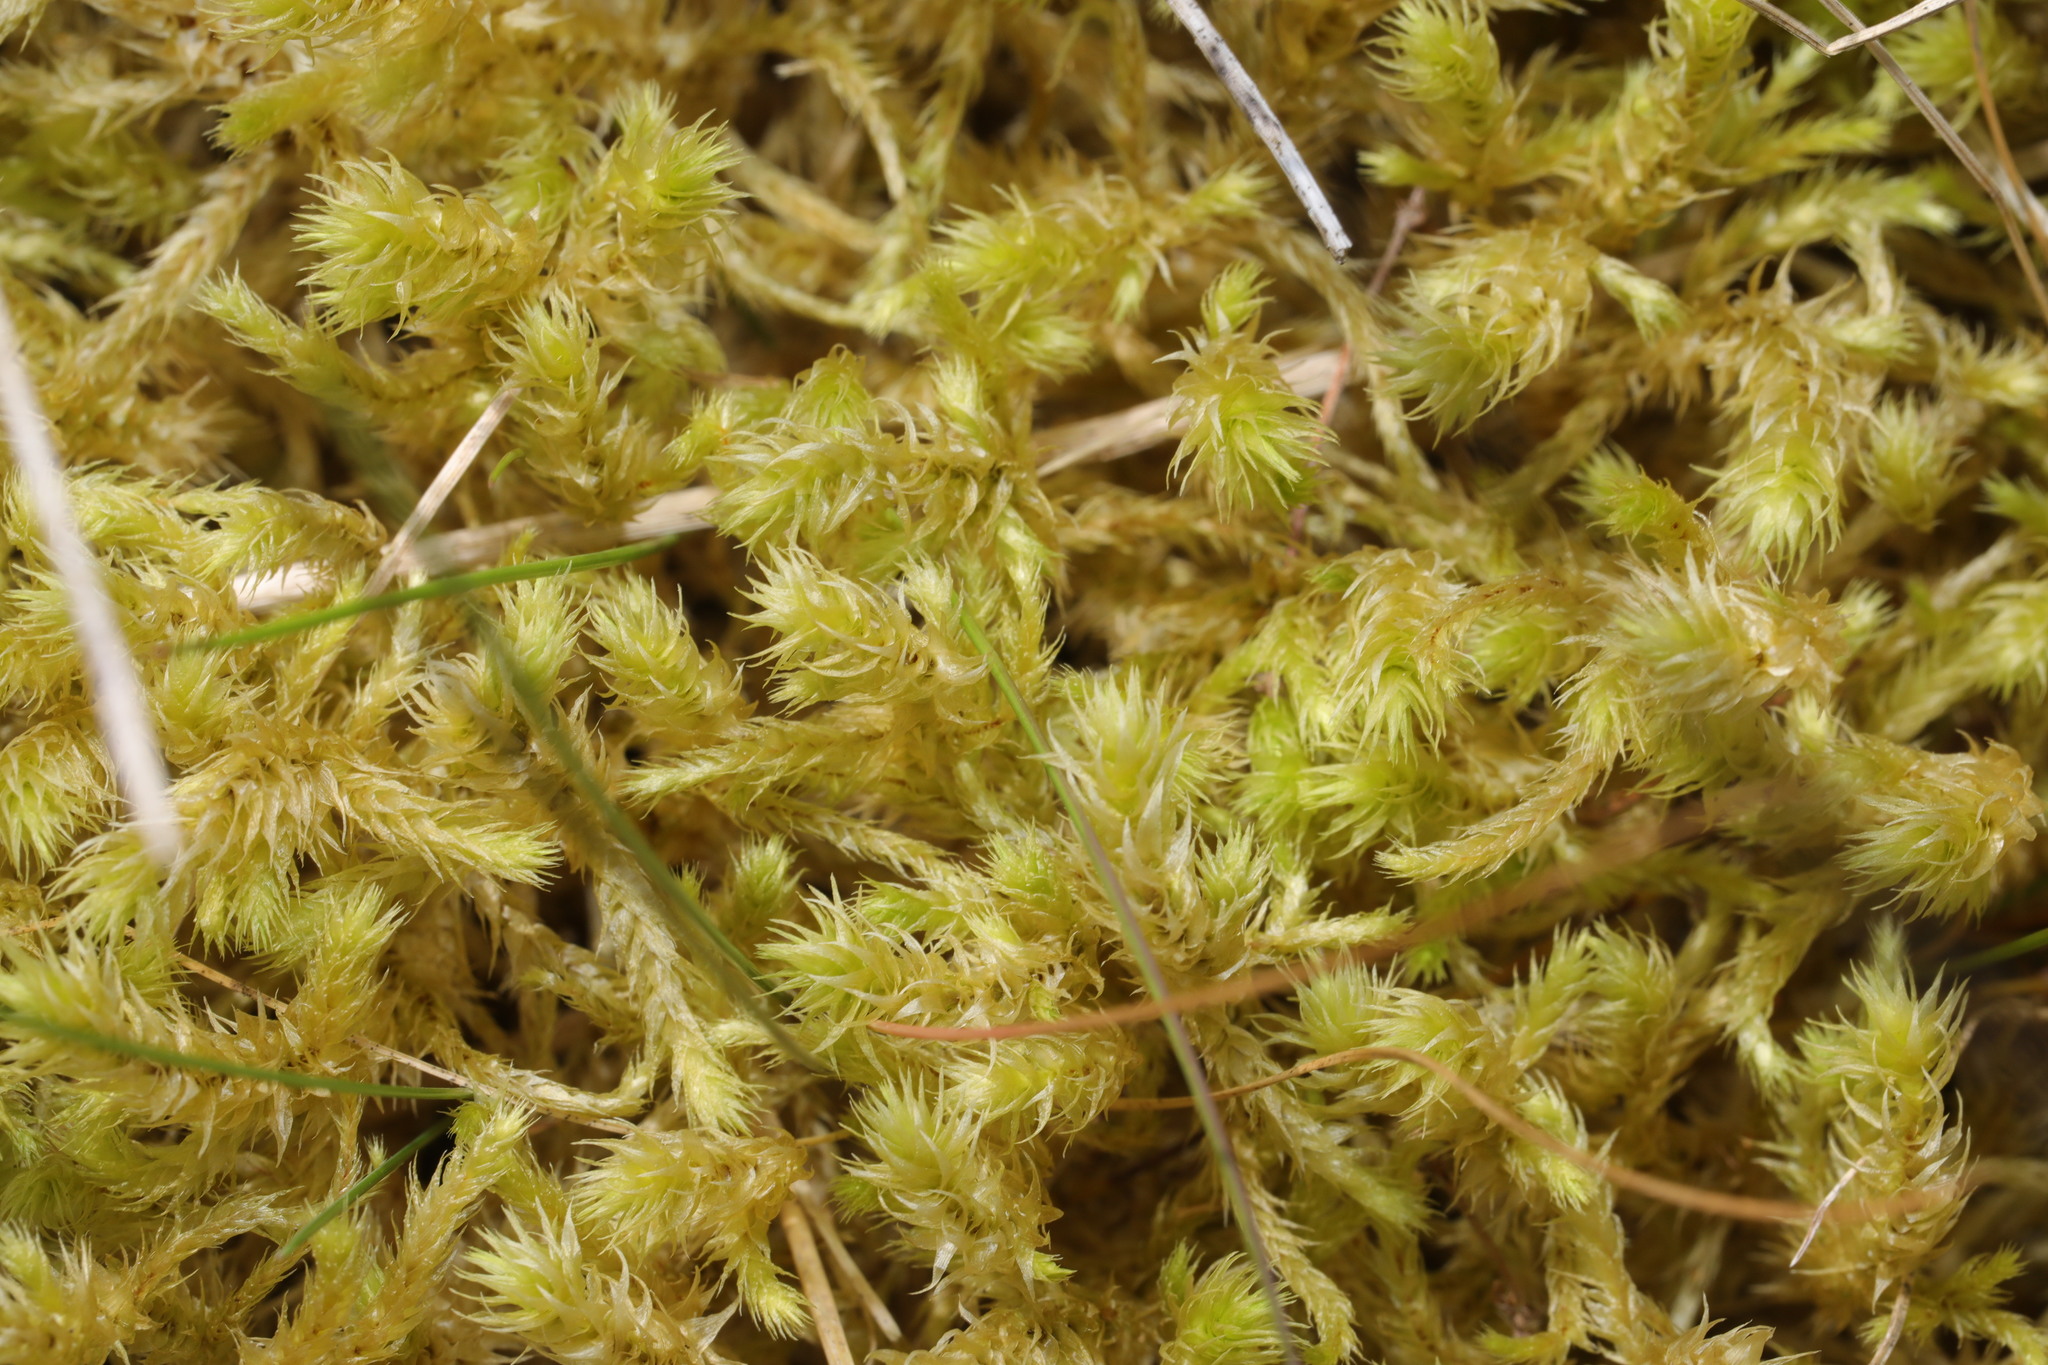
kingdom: Plantae
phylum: Bryophyta
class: Bryopsida
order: Hypnales
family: Hylocomiaceae
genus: Hylocomiadelphus
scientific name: Hylocomiadelphus triquetrus
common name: Rough goose neck moss
